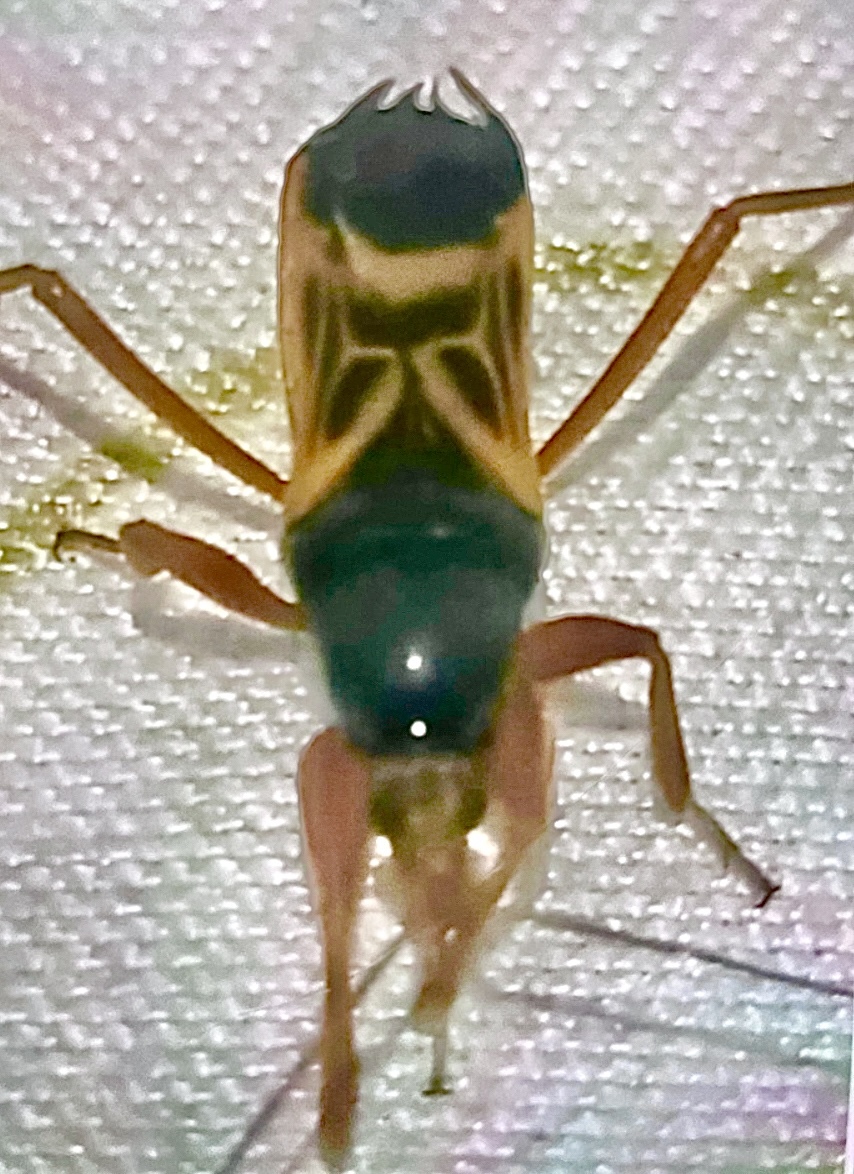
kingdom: Animalia
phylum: Arthropoda
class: Insecta
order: Hemiptera
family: Reduviidae
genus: Ectomocoris
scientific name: Ectomocoris elegans
